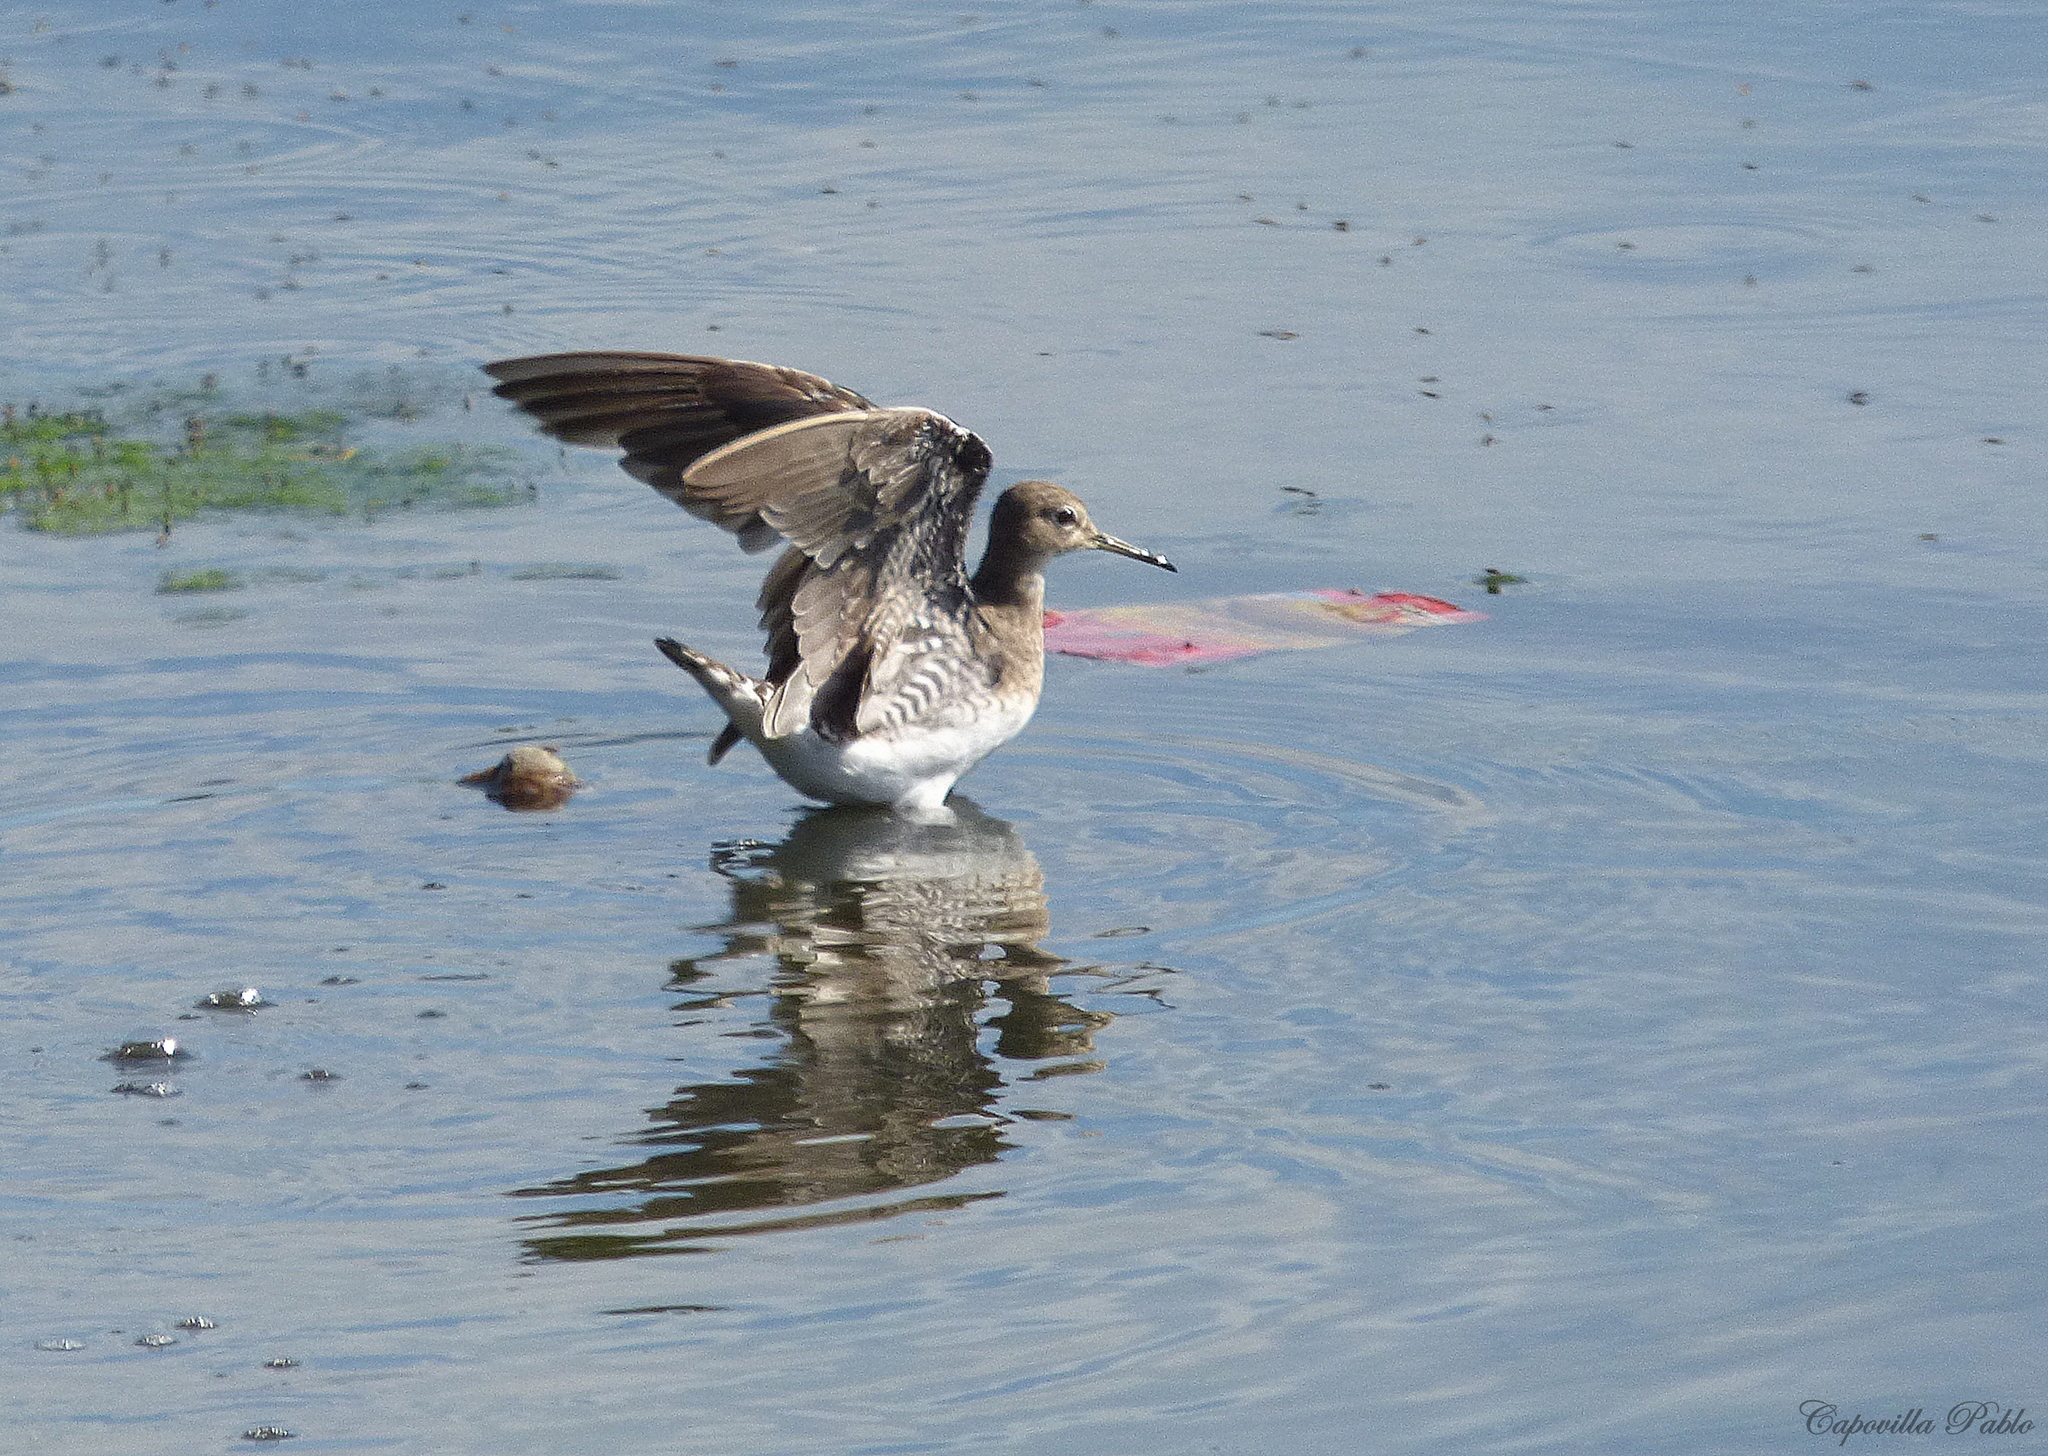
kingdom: Animalia
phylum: Chordata
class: Aves
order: Charadriiformes
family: Scolopacidae
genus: Tringa
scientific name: Tringa solitaria
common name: Solitary sandpiper
